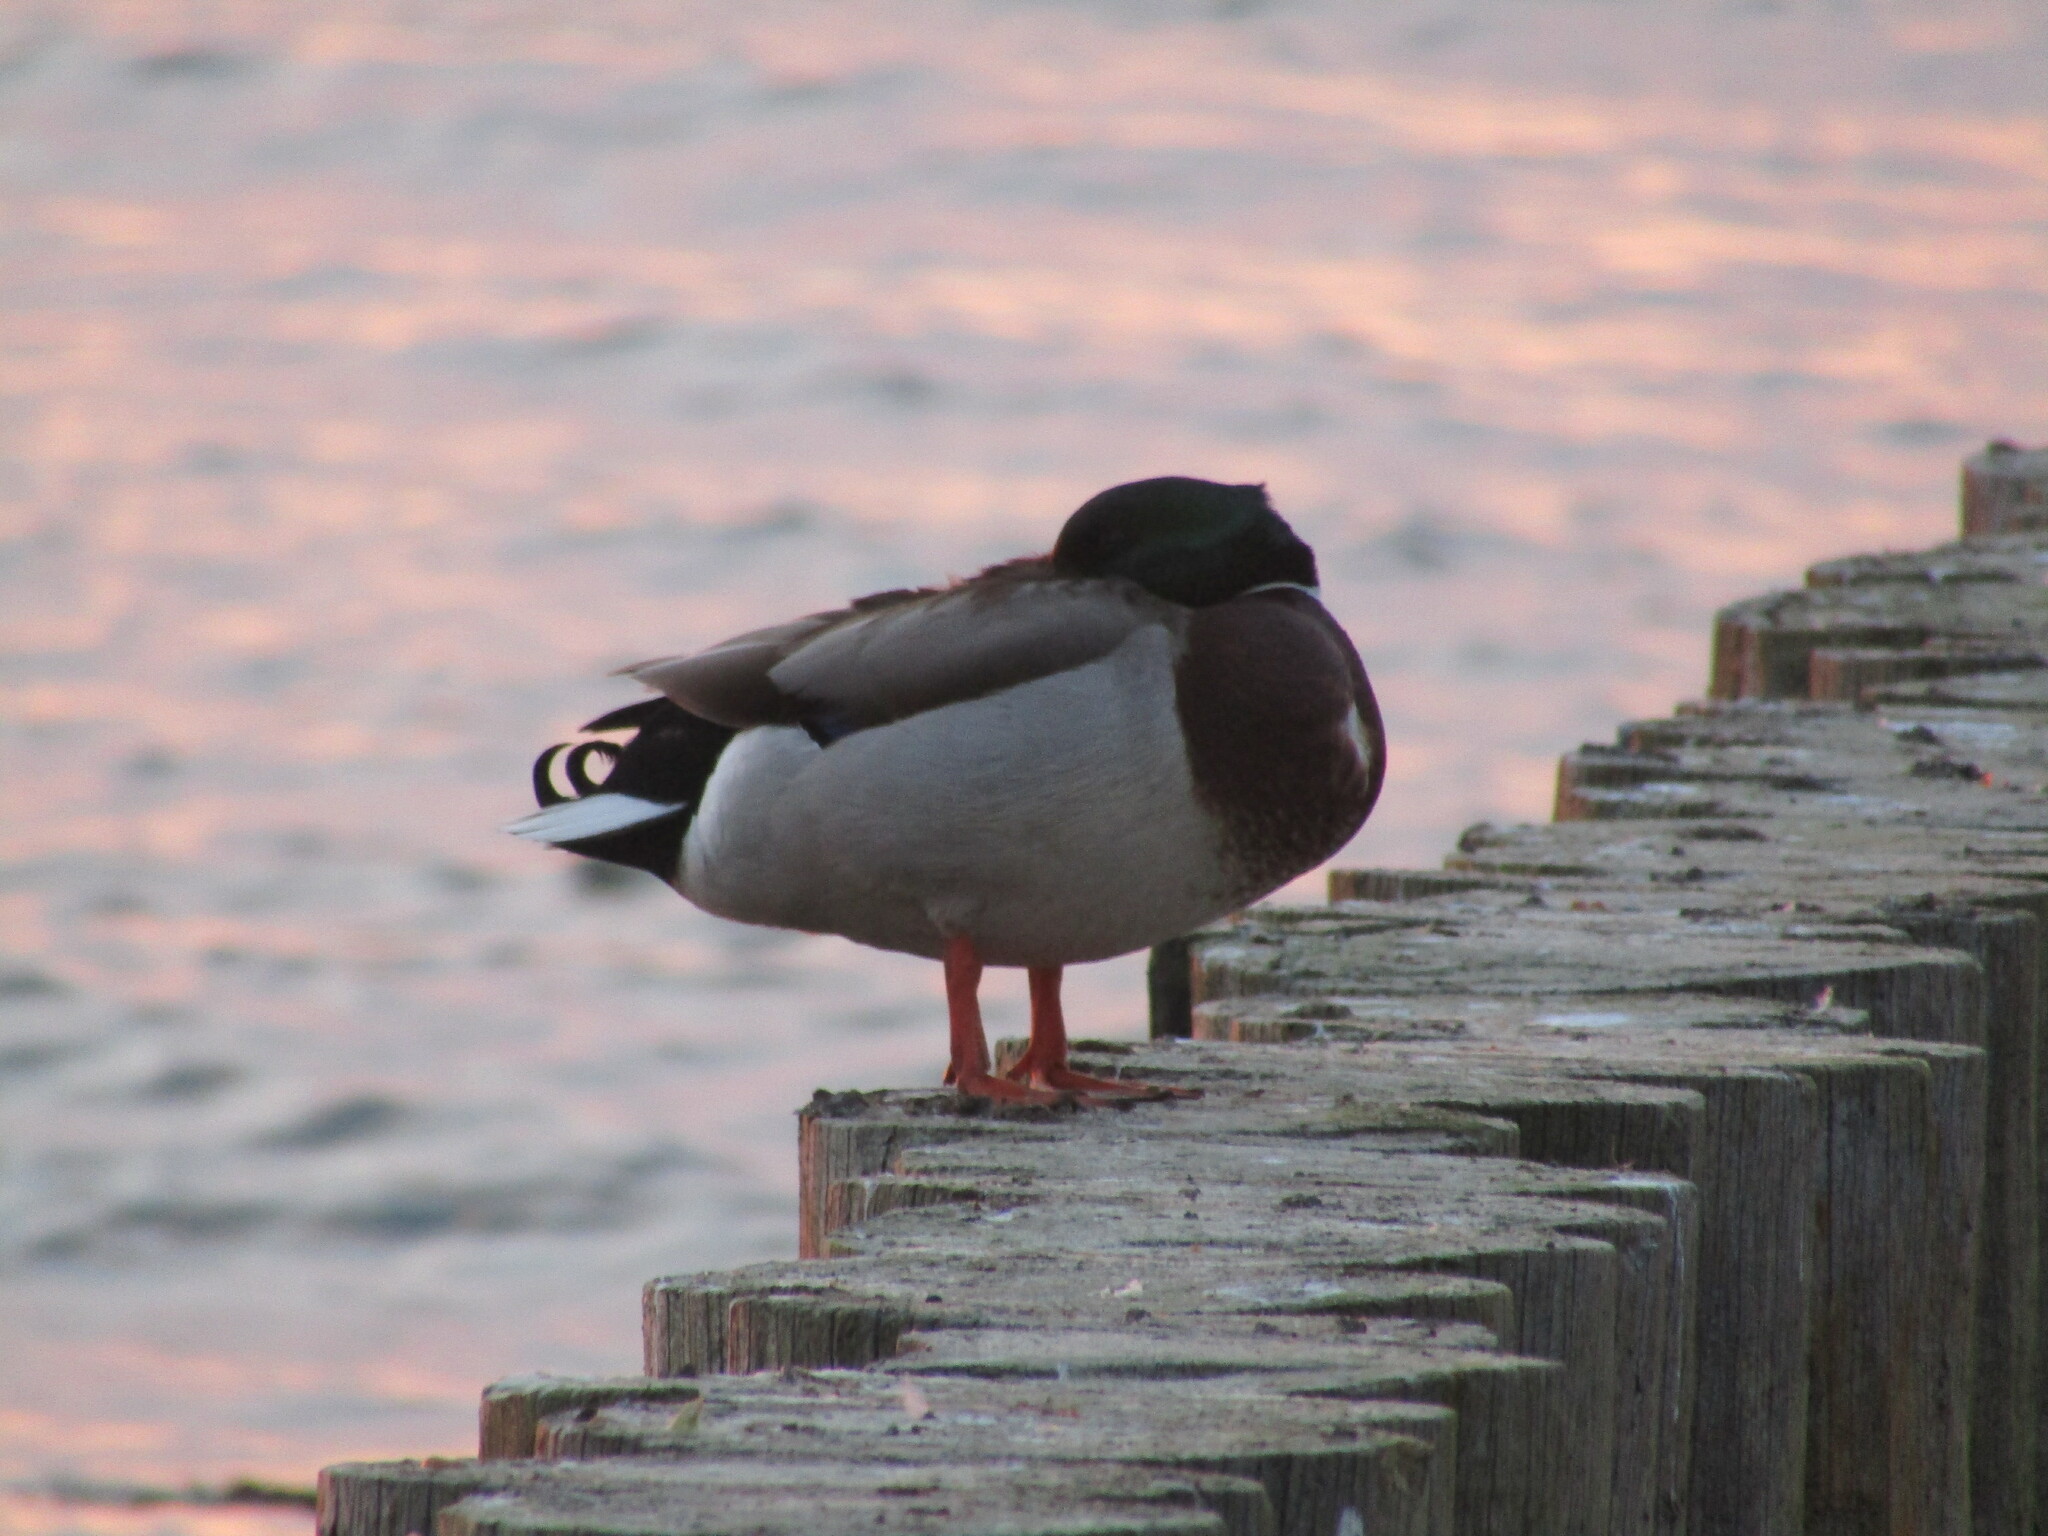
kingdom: Animalia
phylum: Chordata
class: Aves
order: Anseriformes
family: Anatidae
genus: Anas
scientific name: Anas platyrhynchos
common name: Mallard
